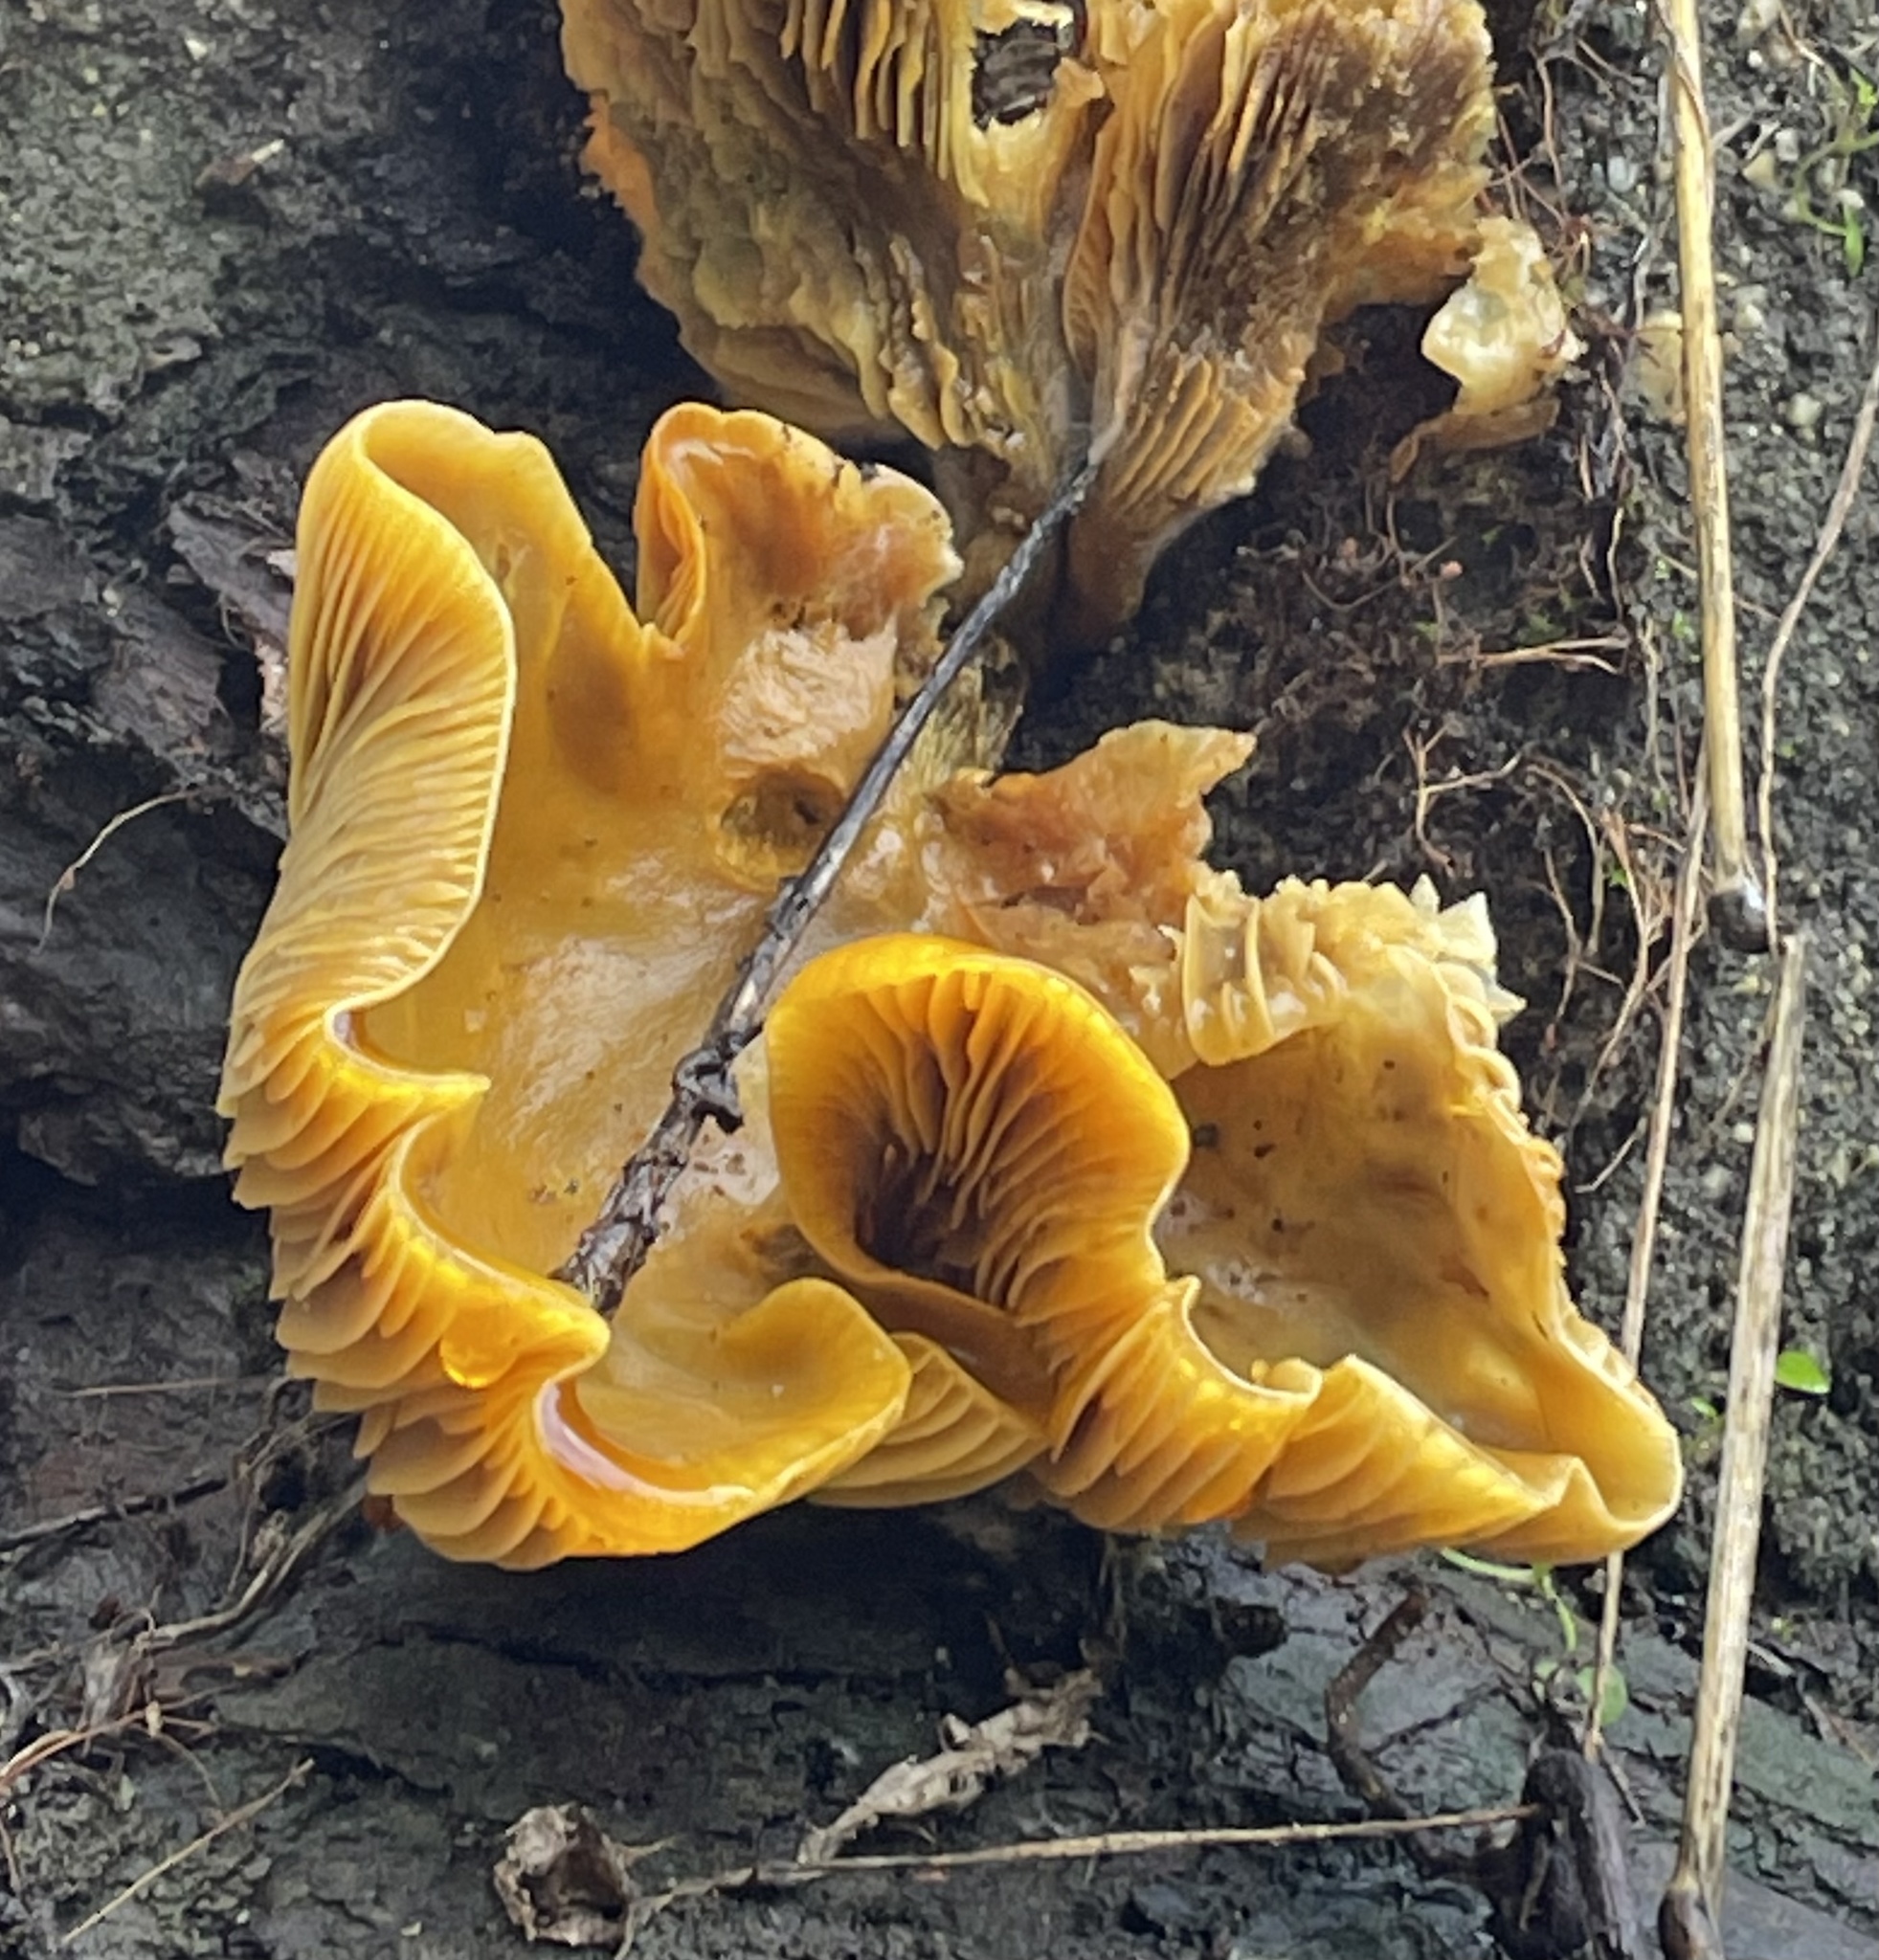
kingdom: Fungi
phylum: Basidiomycota
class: Agaricomycetes
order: Agaricales
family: Omphalotaceae
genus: Omphalotus
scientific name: Omphalotus olivascens
